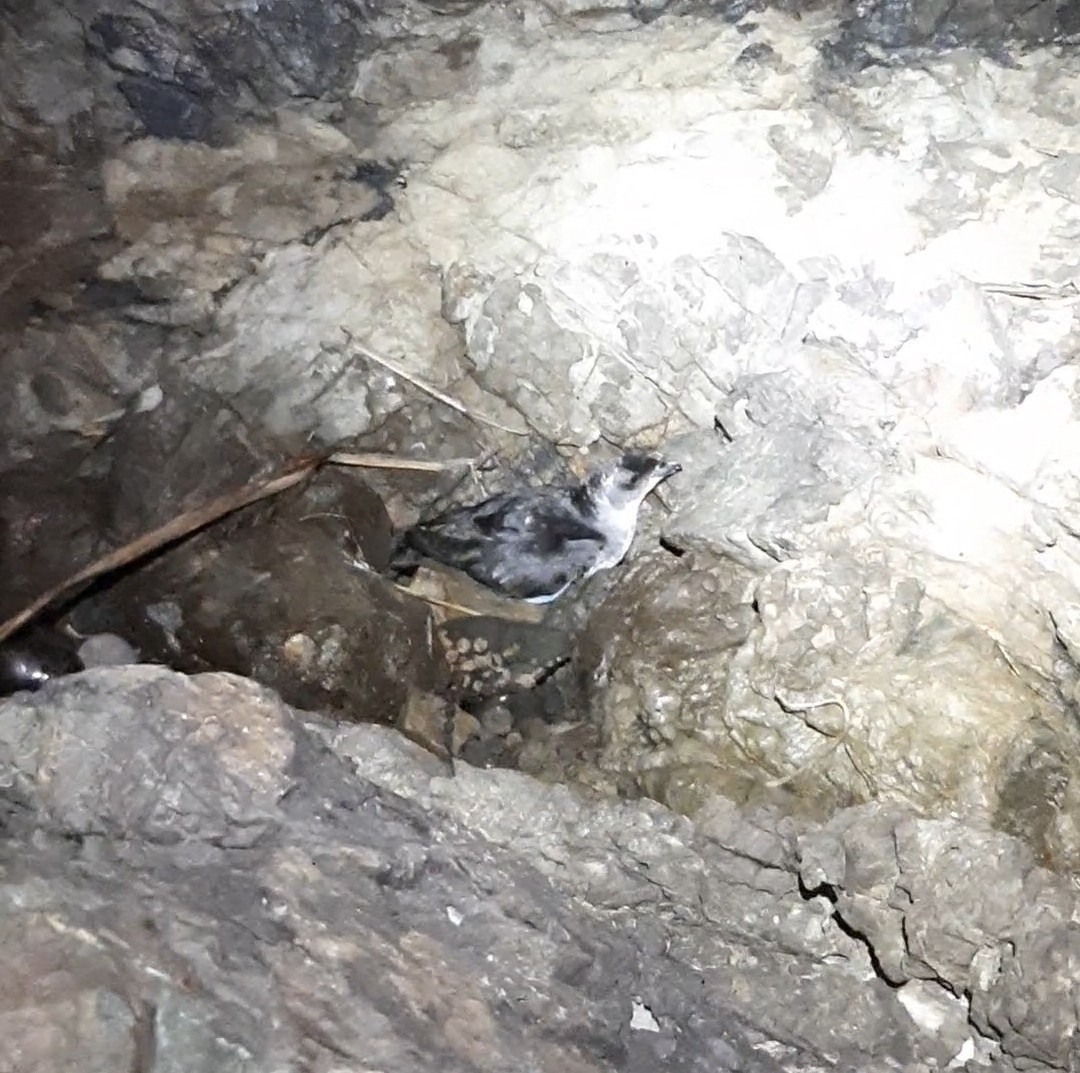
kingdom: Animalia
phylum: Chordata
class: Aves
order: Procellariiformes
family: Pelecanoididae
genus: Pelecanoides
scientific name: Pelecanoides urinatrix
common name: Common diving-petrel
